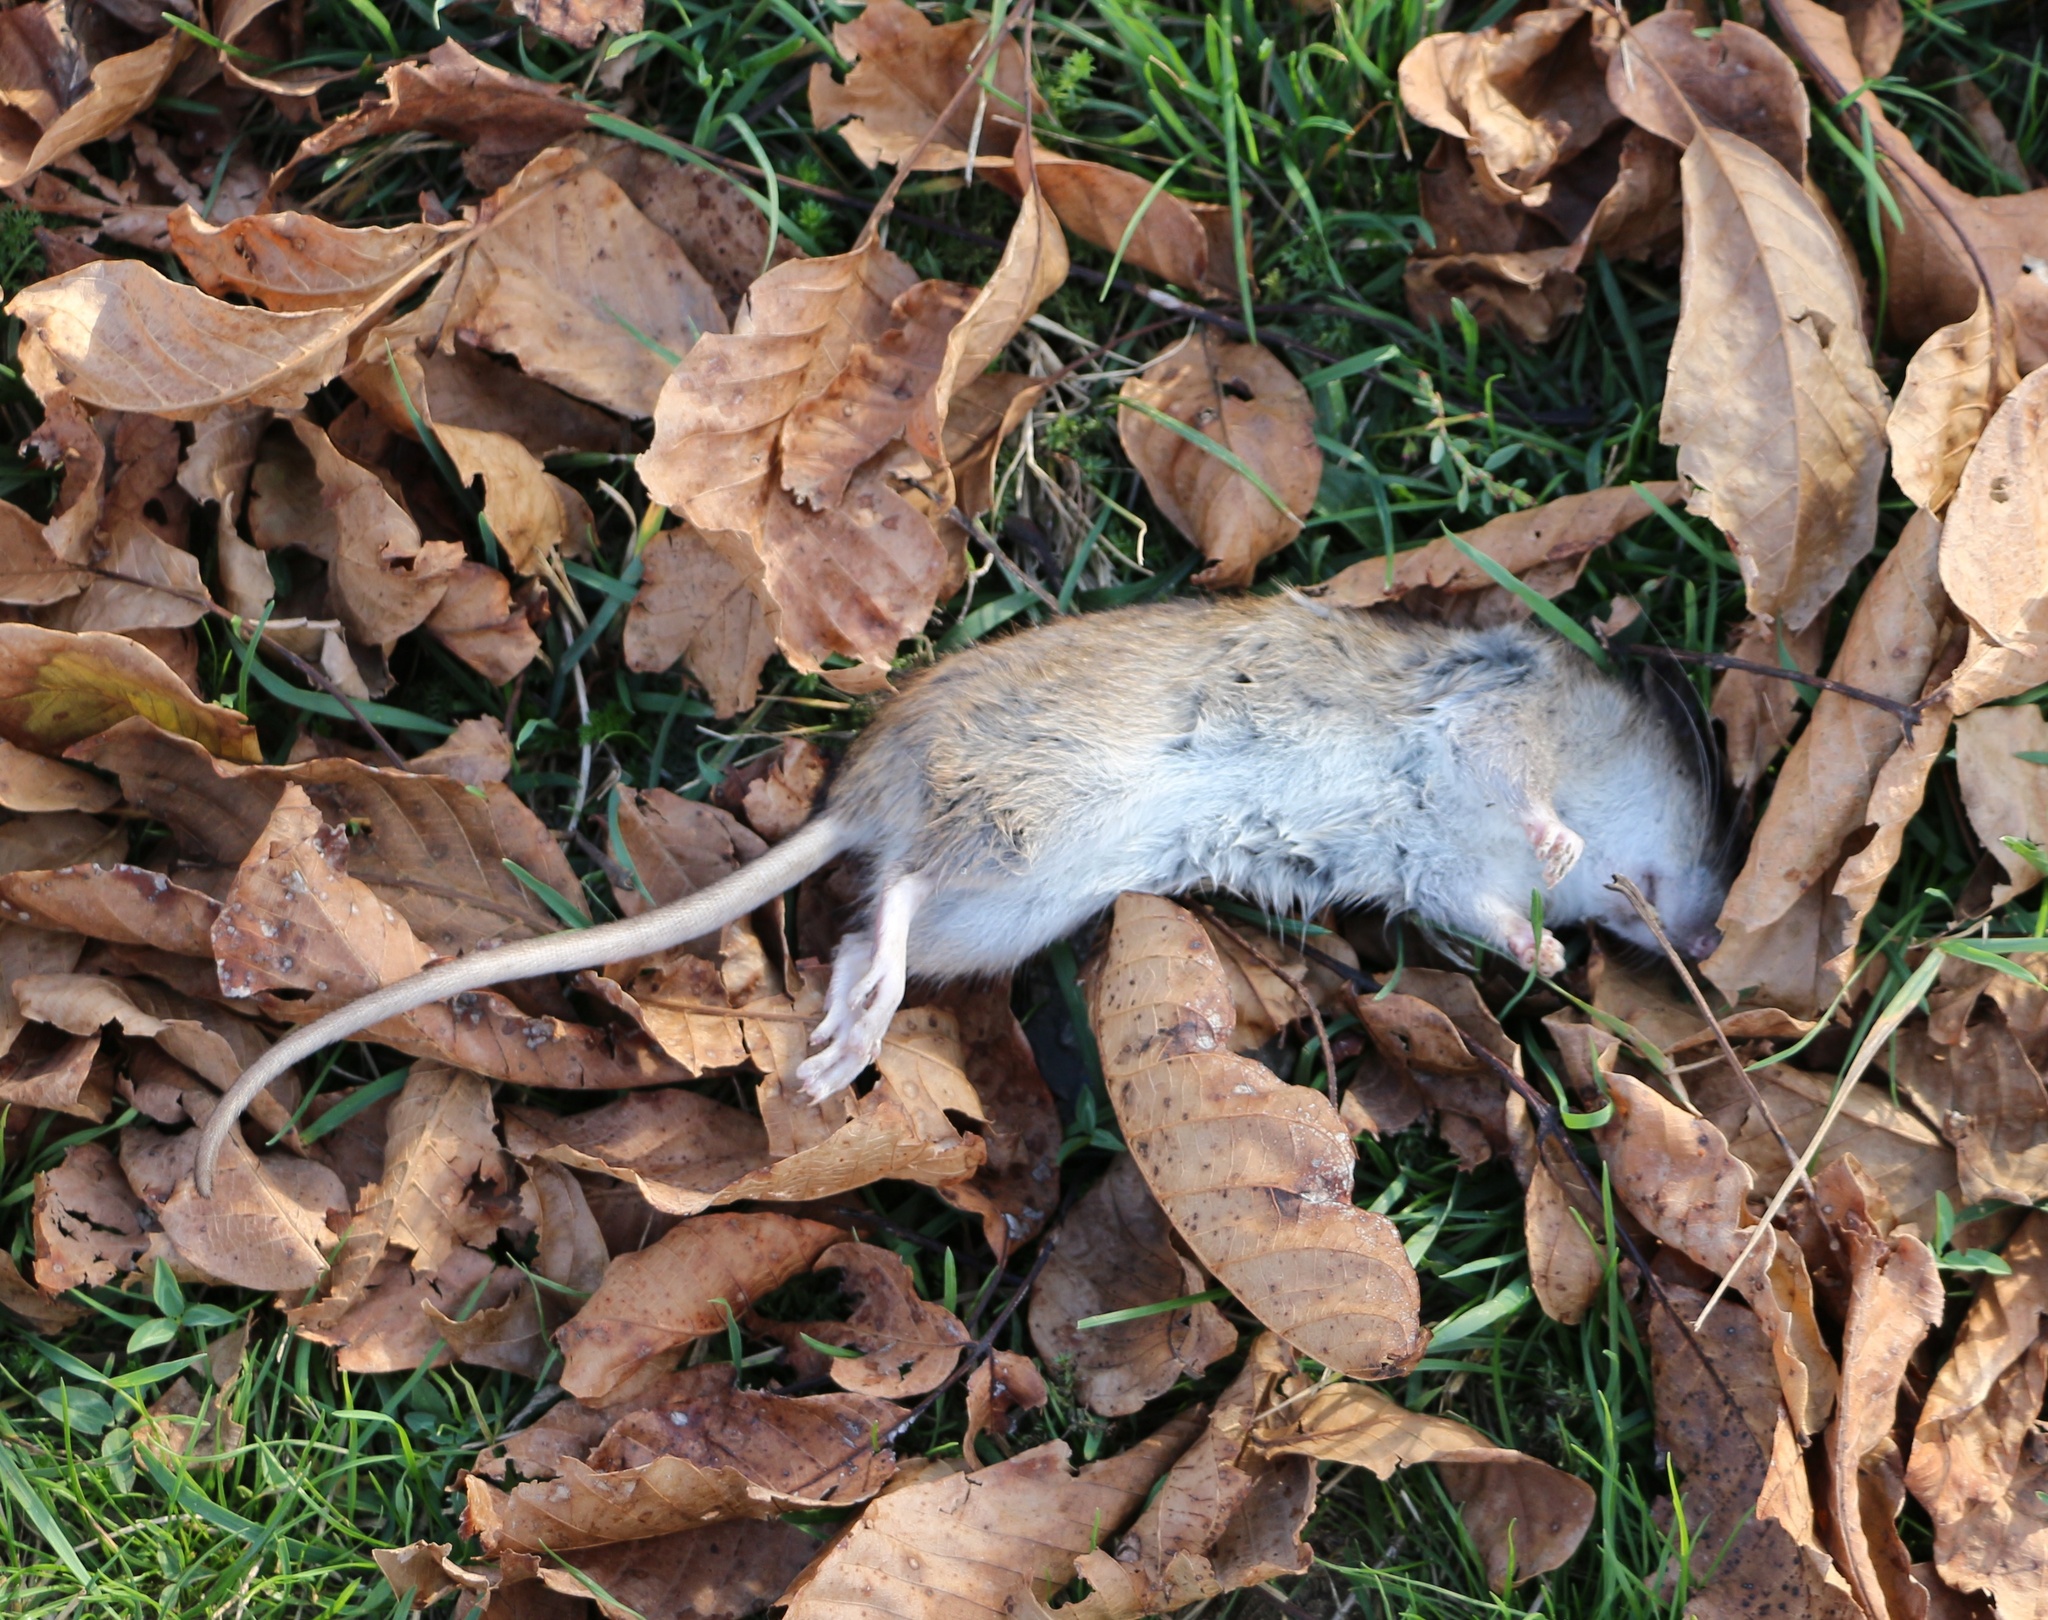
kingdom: Animalia
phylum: Chordata
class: Mammalia
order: Rodentia
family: Muridae
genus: Rattus
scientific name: Rattus norvegicus
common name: Brown rat
